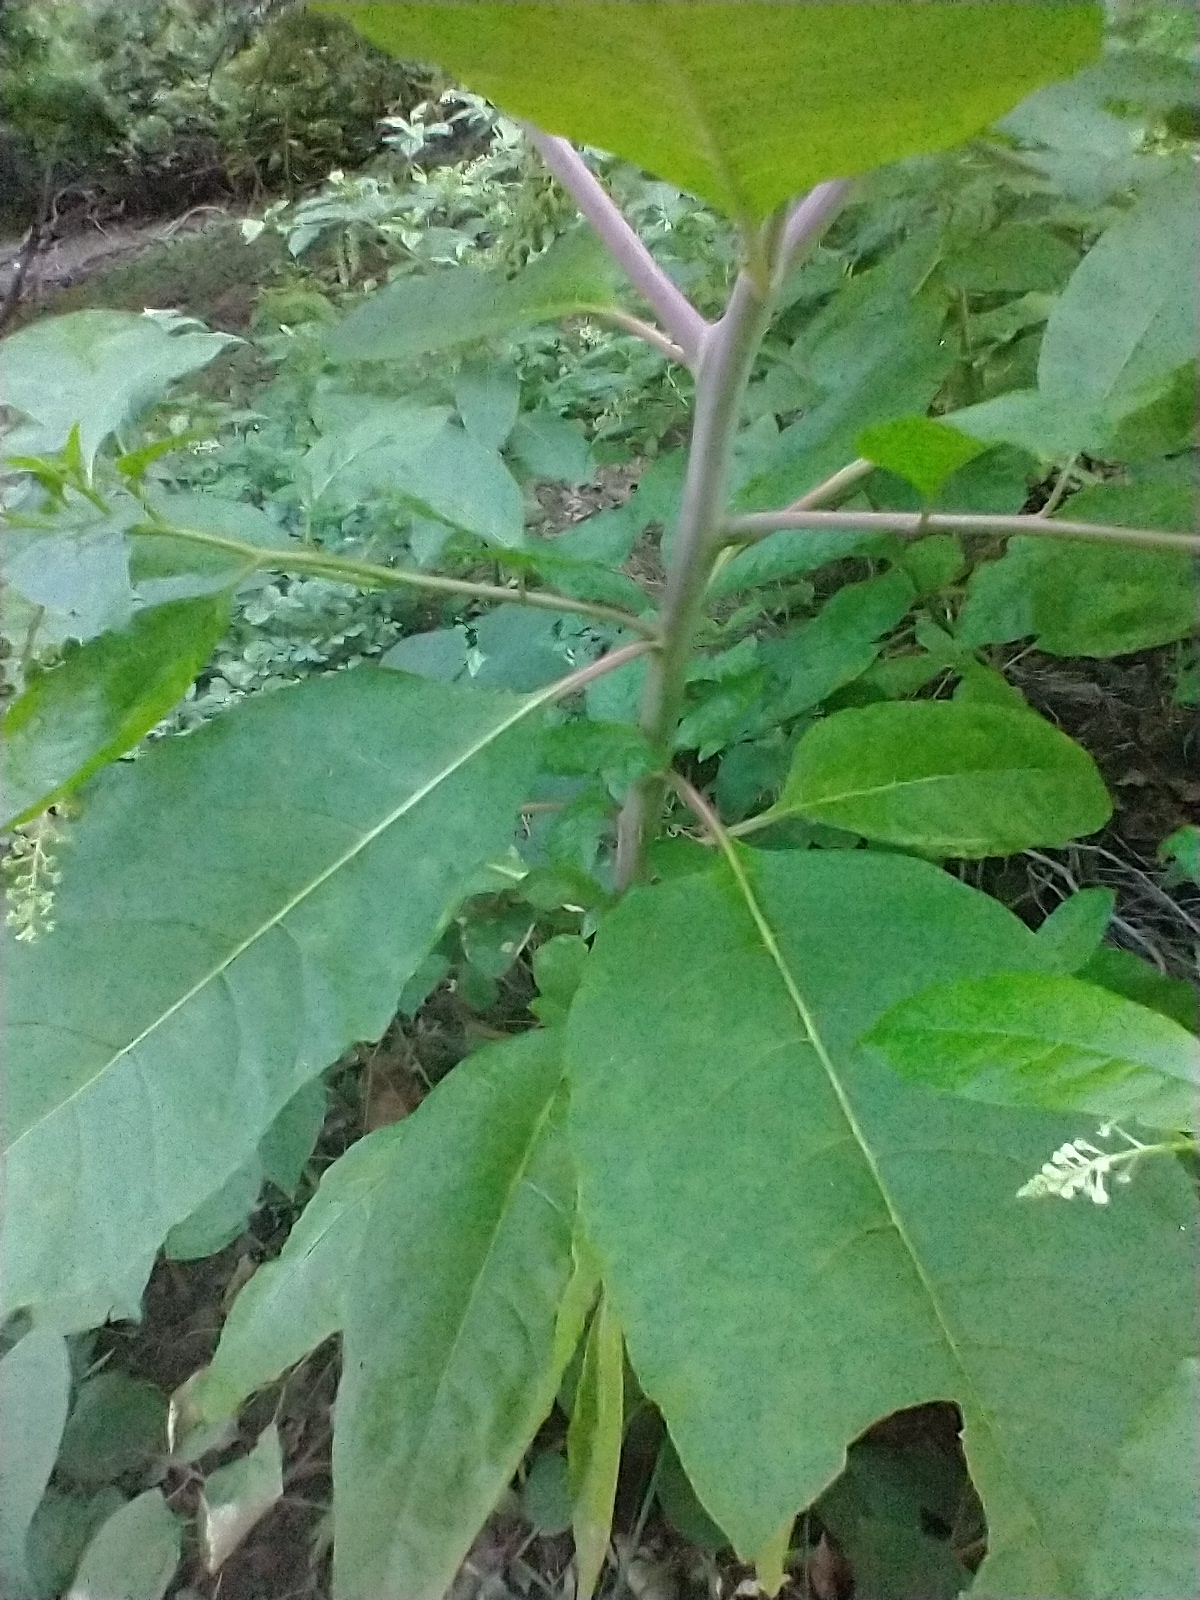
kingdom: Plantae
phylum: Tracheophyta
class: Magnoliopsida
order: Caryophyllales
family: Phytolaccaceae
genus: Phytolacca
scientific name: Phytolacca americana
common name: American pokeweed
